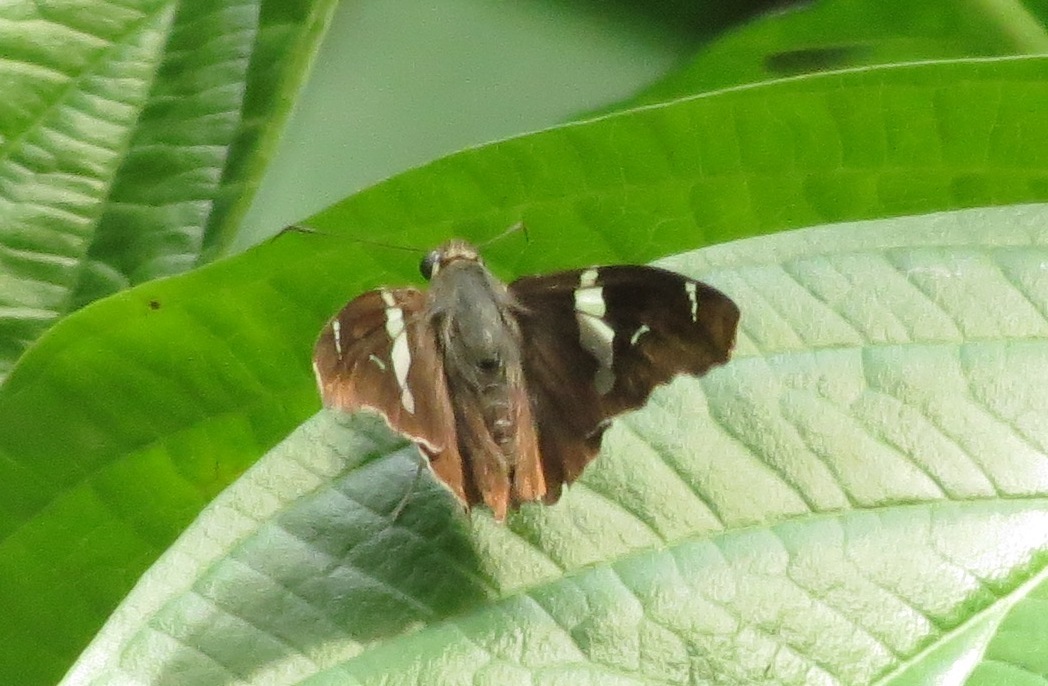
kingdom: Animalia
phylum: Arthropoda
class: Insecta
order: Lepidoptera
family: Hesperiidae
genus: Spathilepia
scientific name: Spathilepia clonius
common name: Falcate skipper
